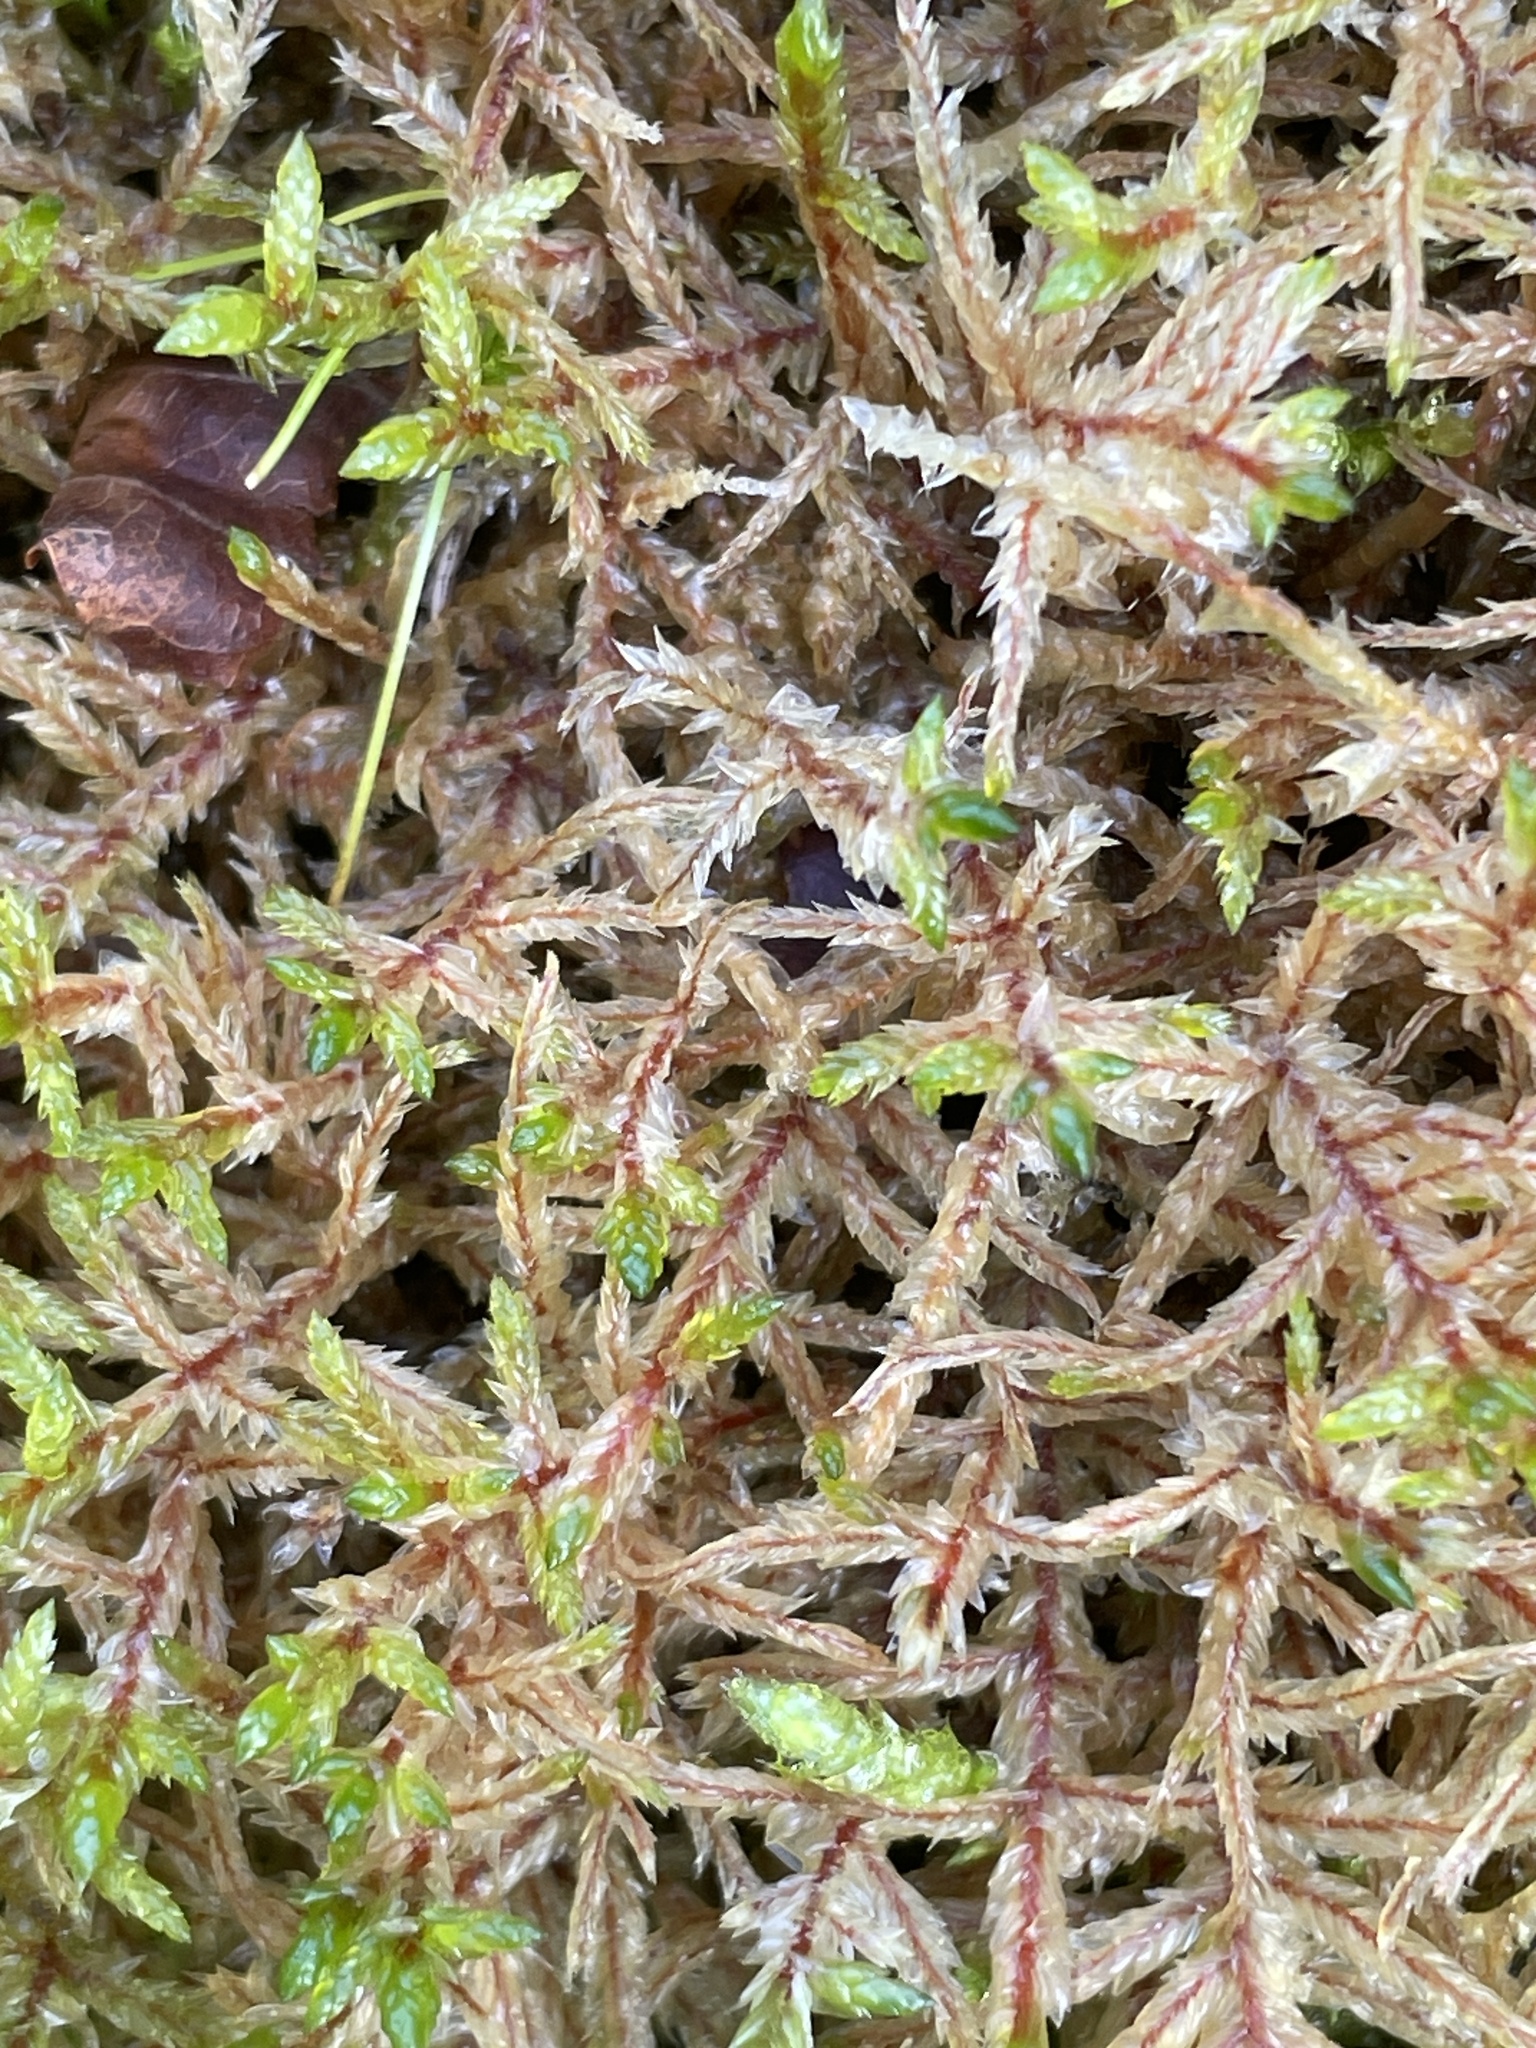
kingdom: Plantae
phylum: Bryophyta
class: Bryopsida
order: Hypnales
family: Hylocomiaceae
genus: Pleurozium
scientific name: Pleurozium schreberi
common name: Red-stemmed feather moss
